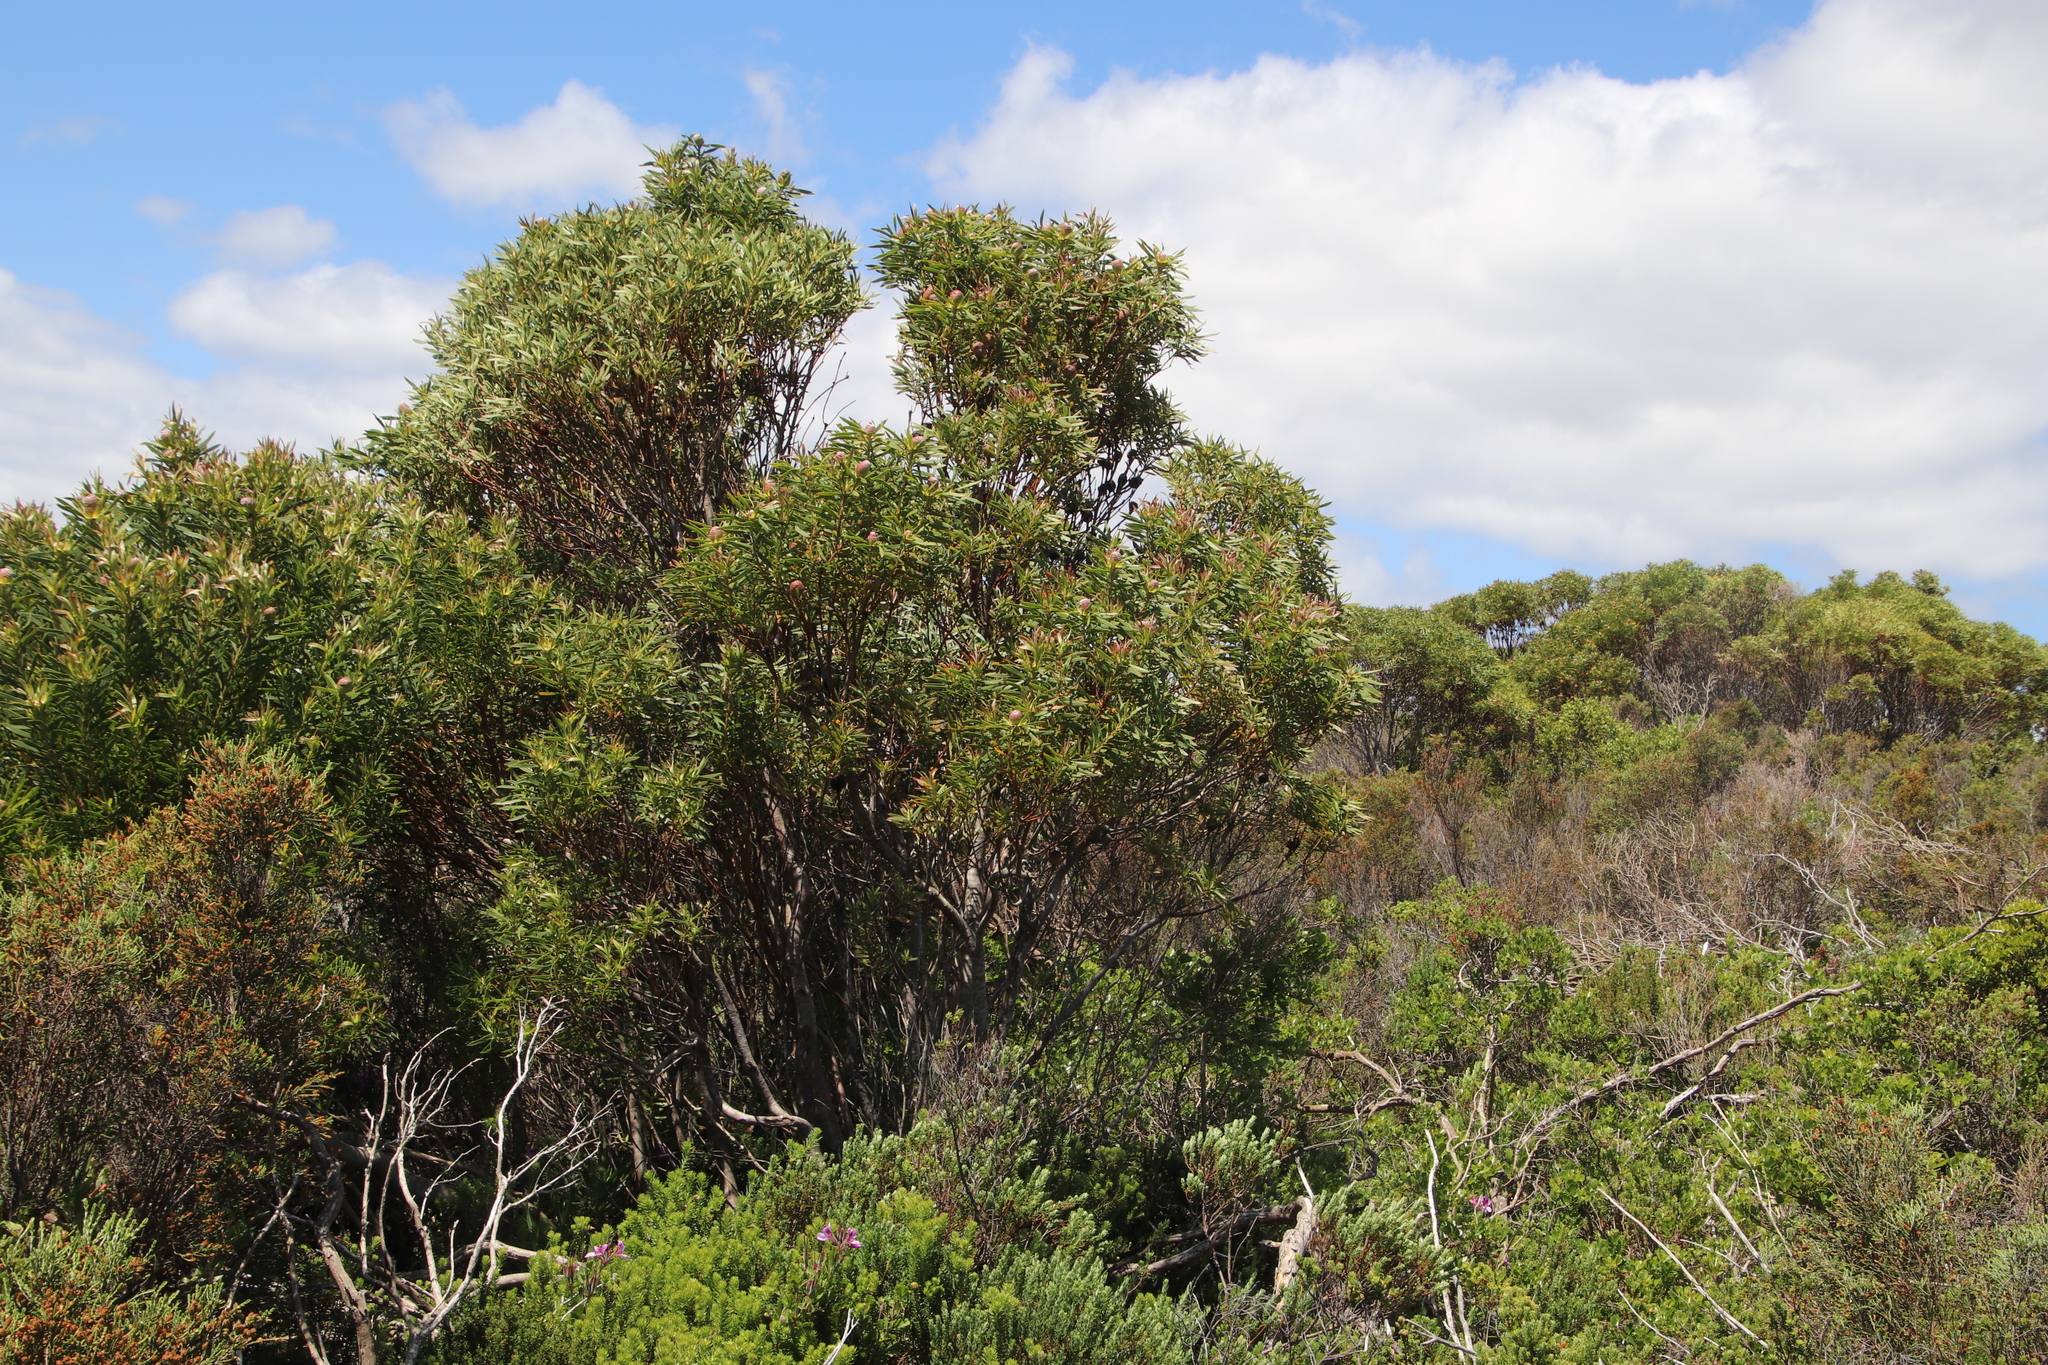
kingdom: Plantae
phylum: Tracheophyta
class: Magnoliopsida
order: Proteales
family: Proteaceae
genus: Leucadendron
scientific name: Leucadendron coniferum
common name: Dune conebush
